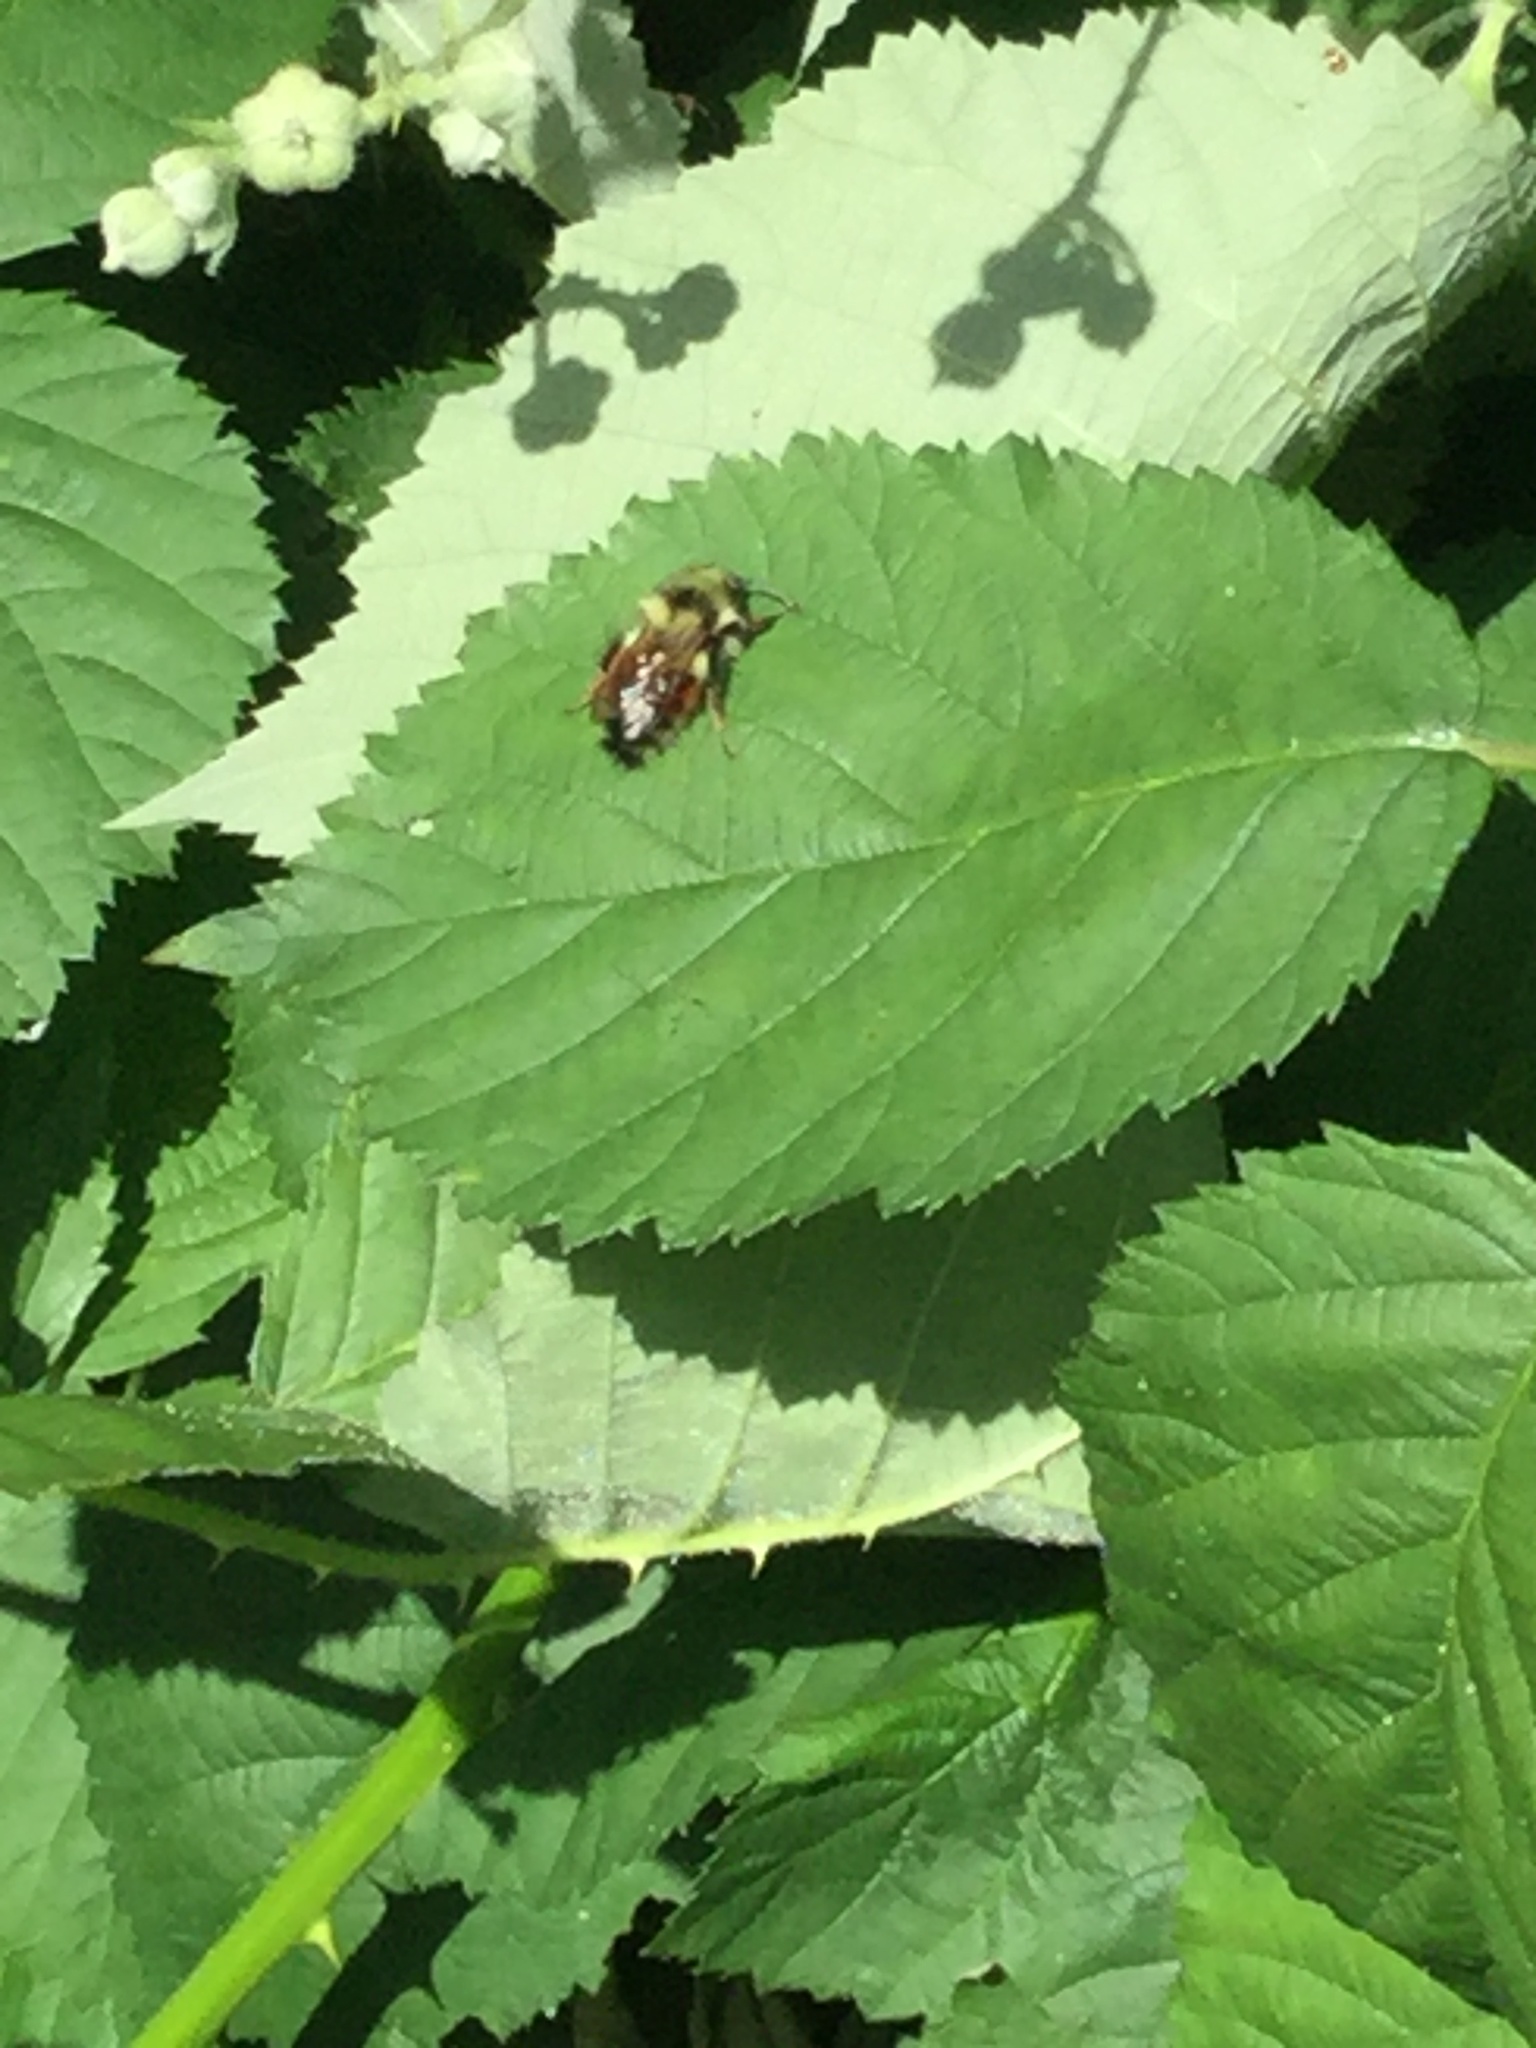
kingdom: Animalia
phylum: Arthropoda
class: Insecta
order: Hymenoptera
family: Apidae
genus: Bombus
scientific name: Bombus melanopygus
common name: Black tail bumble bee
